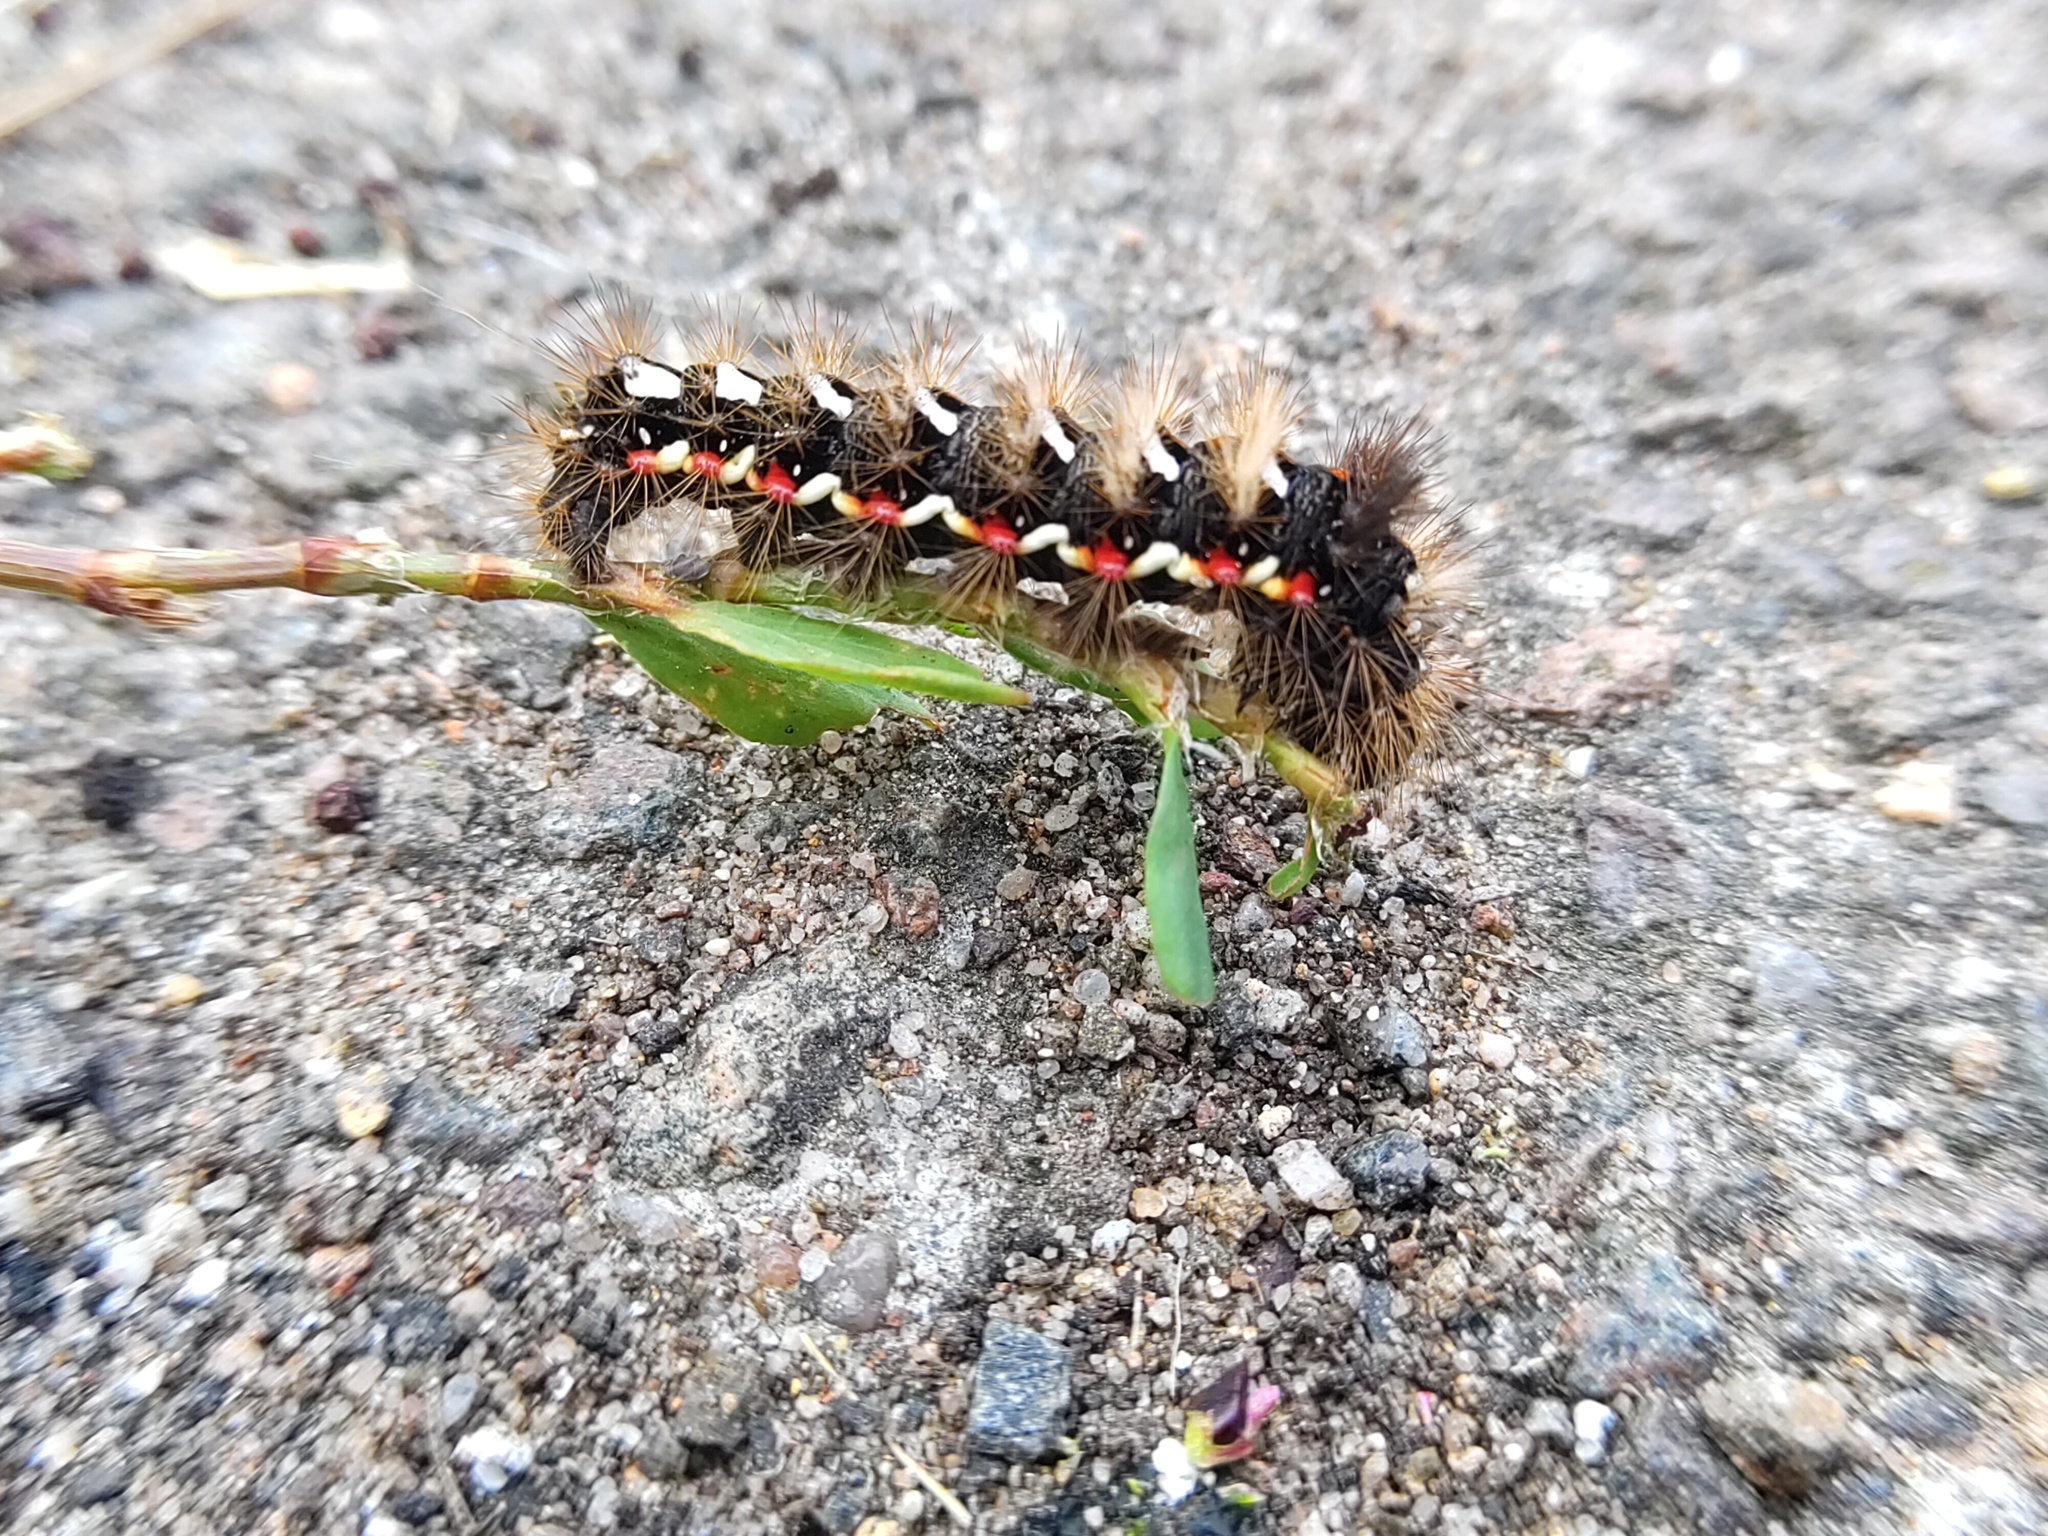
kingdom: Animalia
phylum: Arthropoda
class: Insecta
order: Lepidoptera
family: Noctuidae
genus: Acronicta
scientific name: Acronicta rumicis
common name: Knot grass
